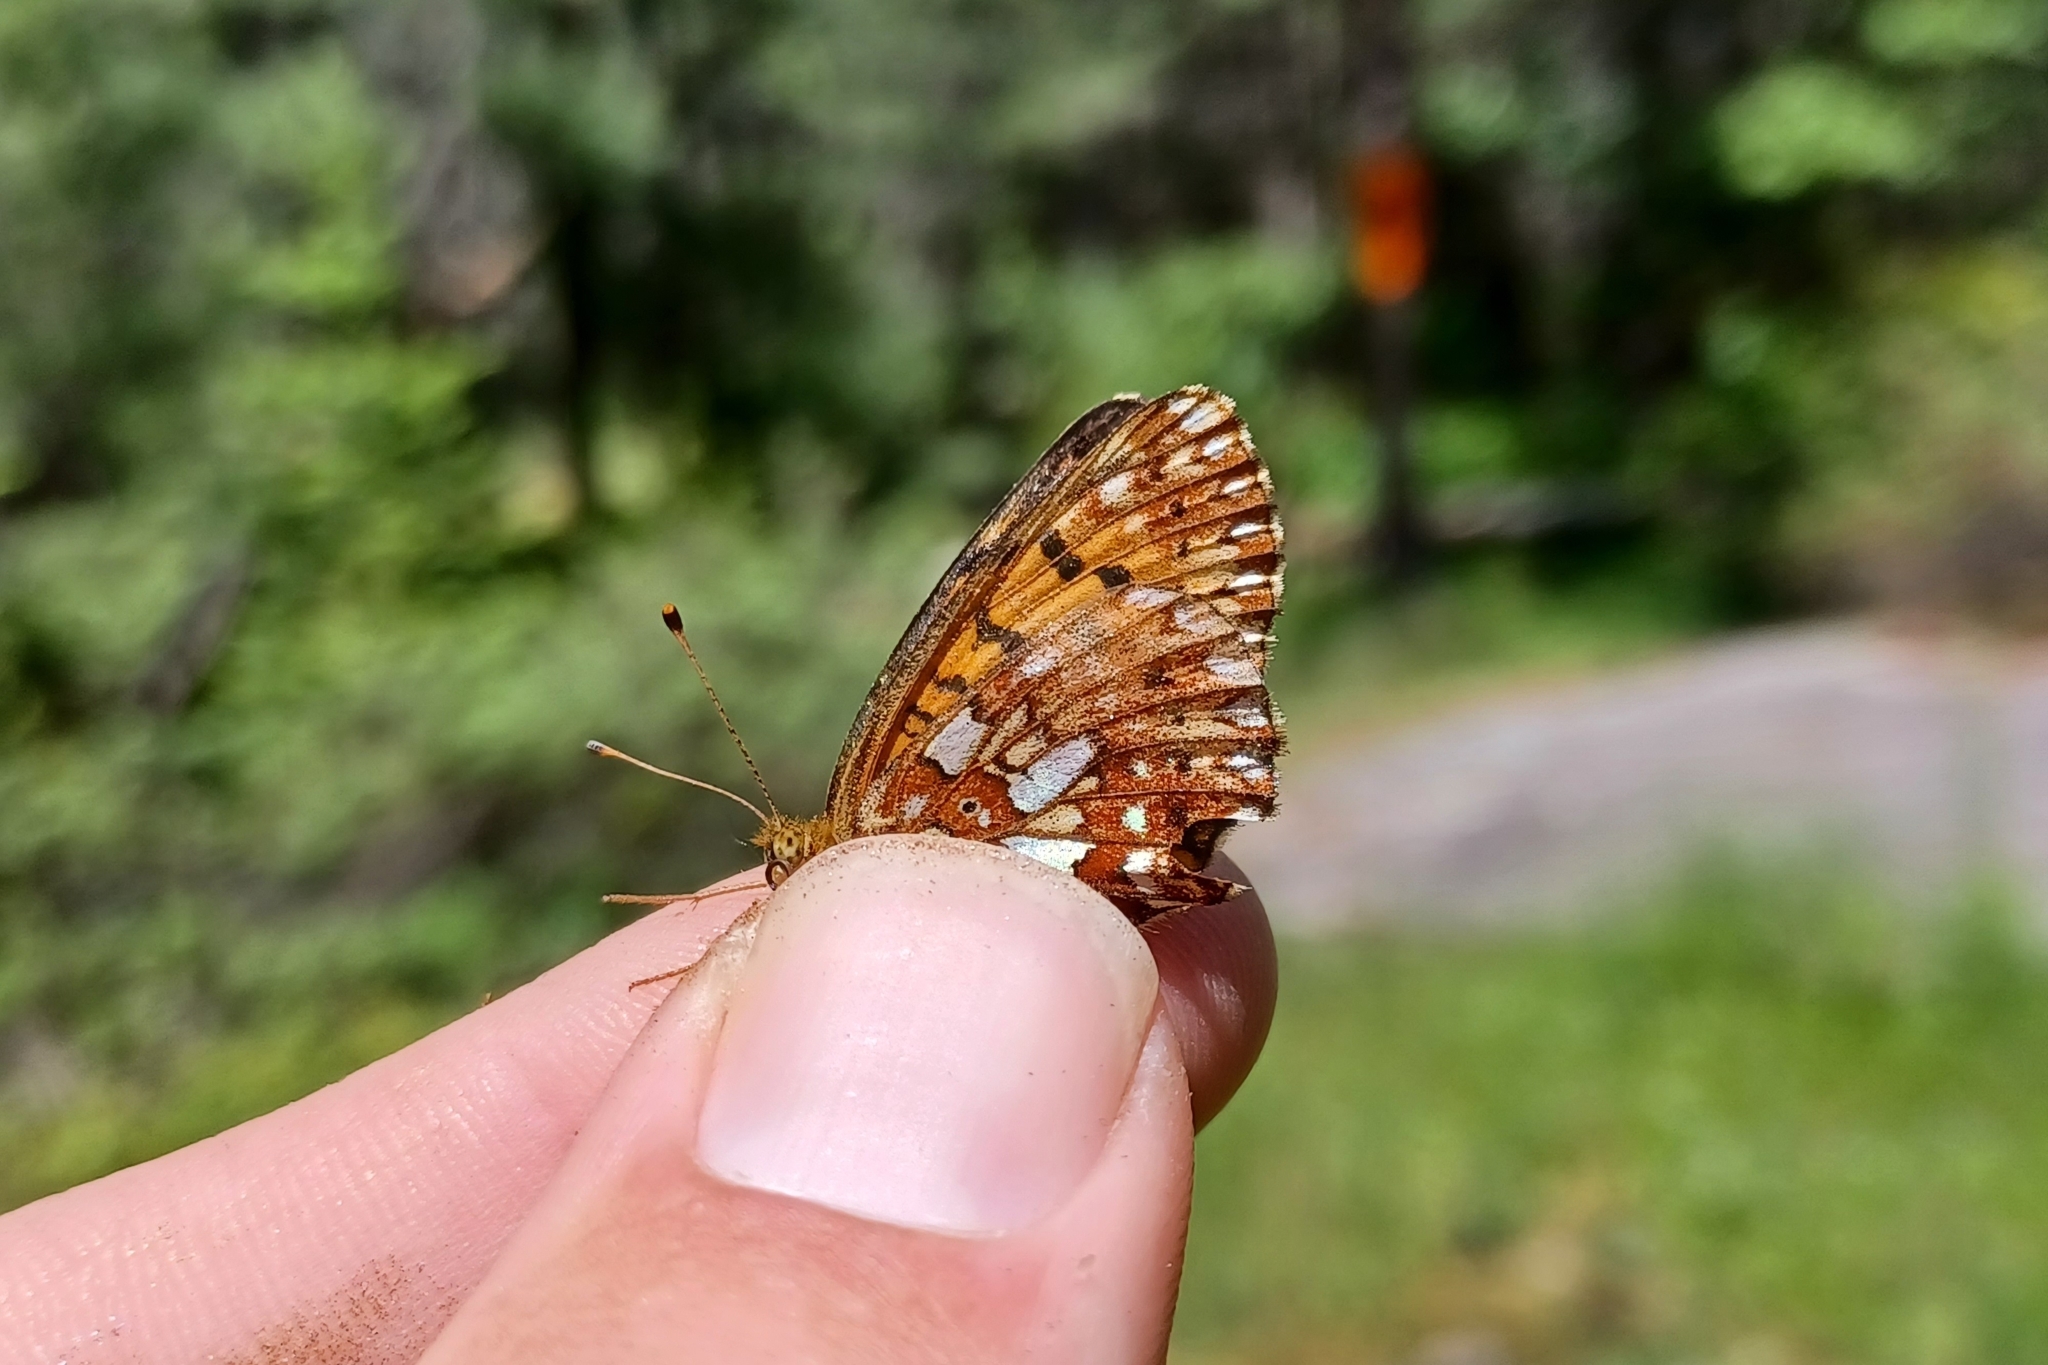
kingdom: Animalia
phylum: Arthropoda
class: Insecta
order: Lepidoptera
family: Nymphalidae
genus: Boloria
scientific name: Boloria
